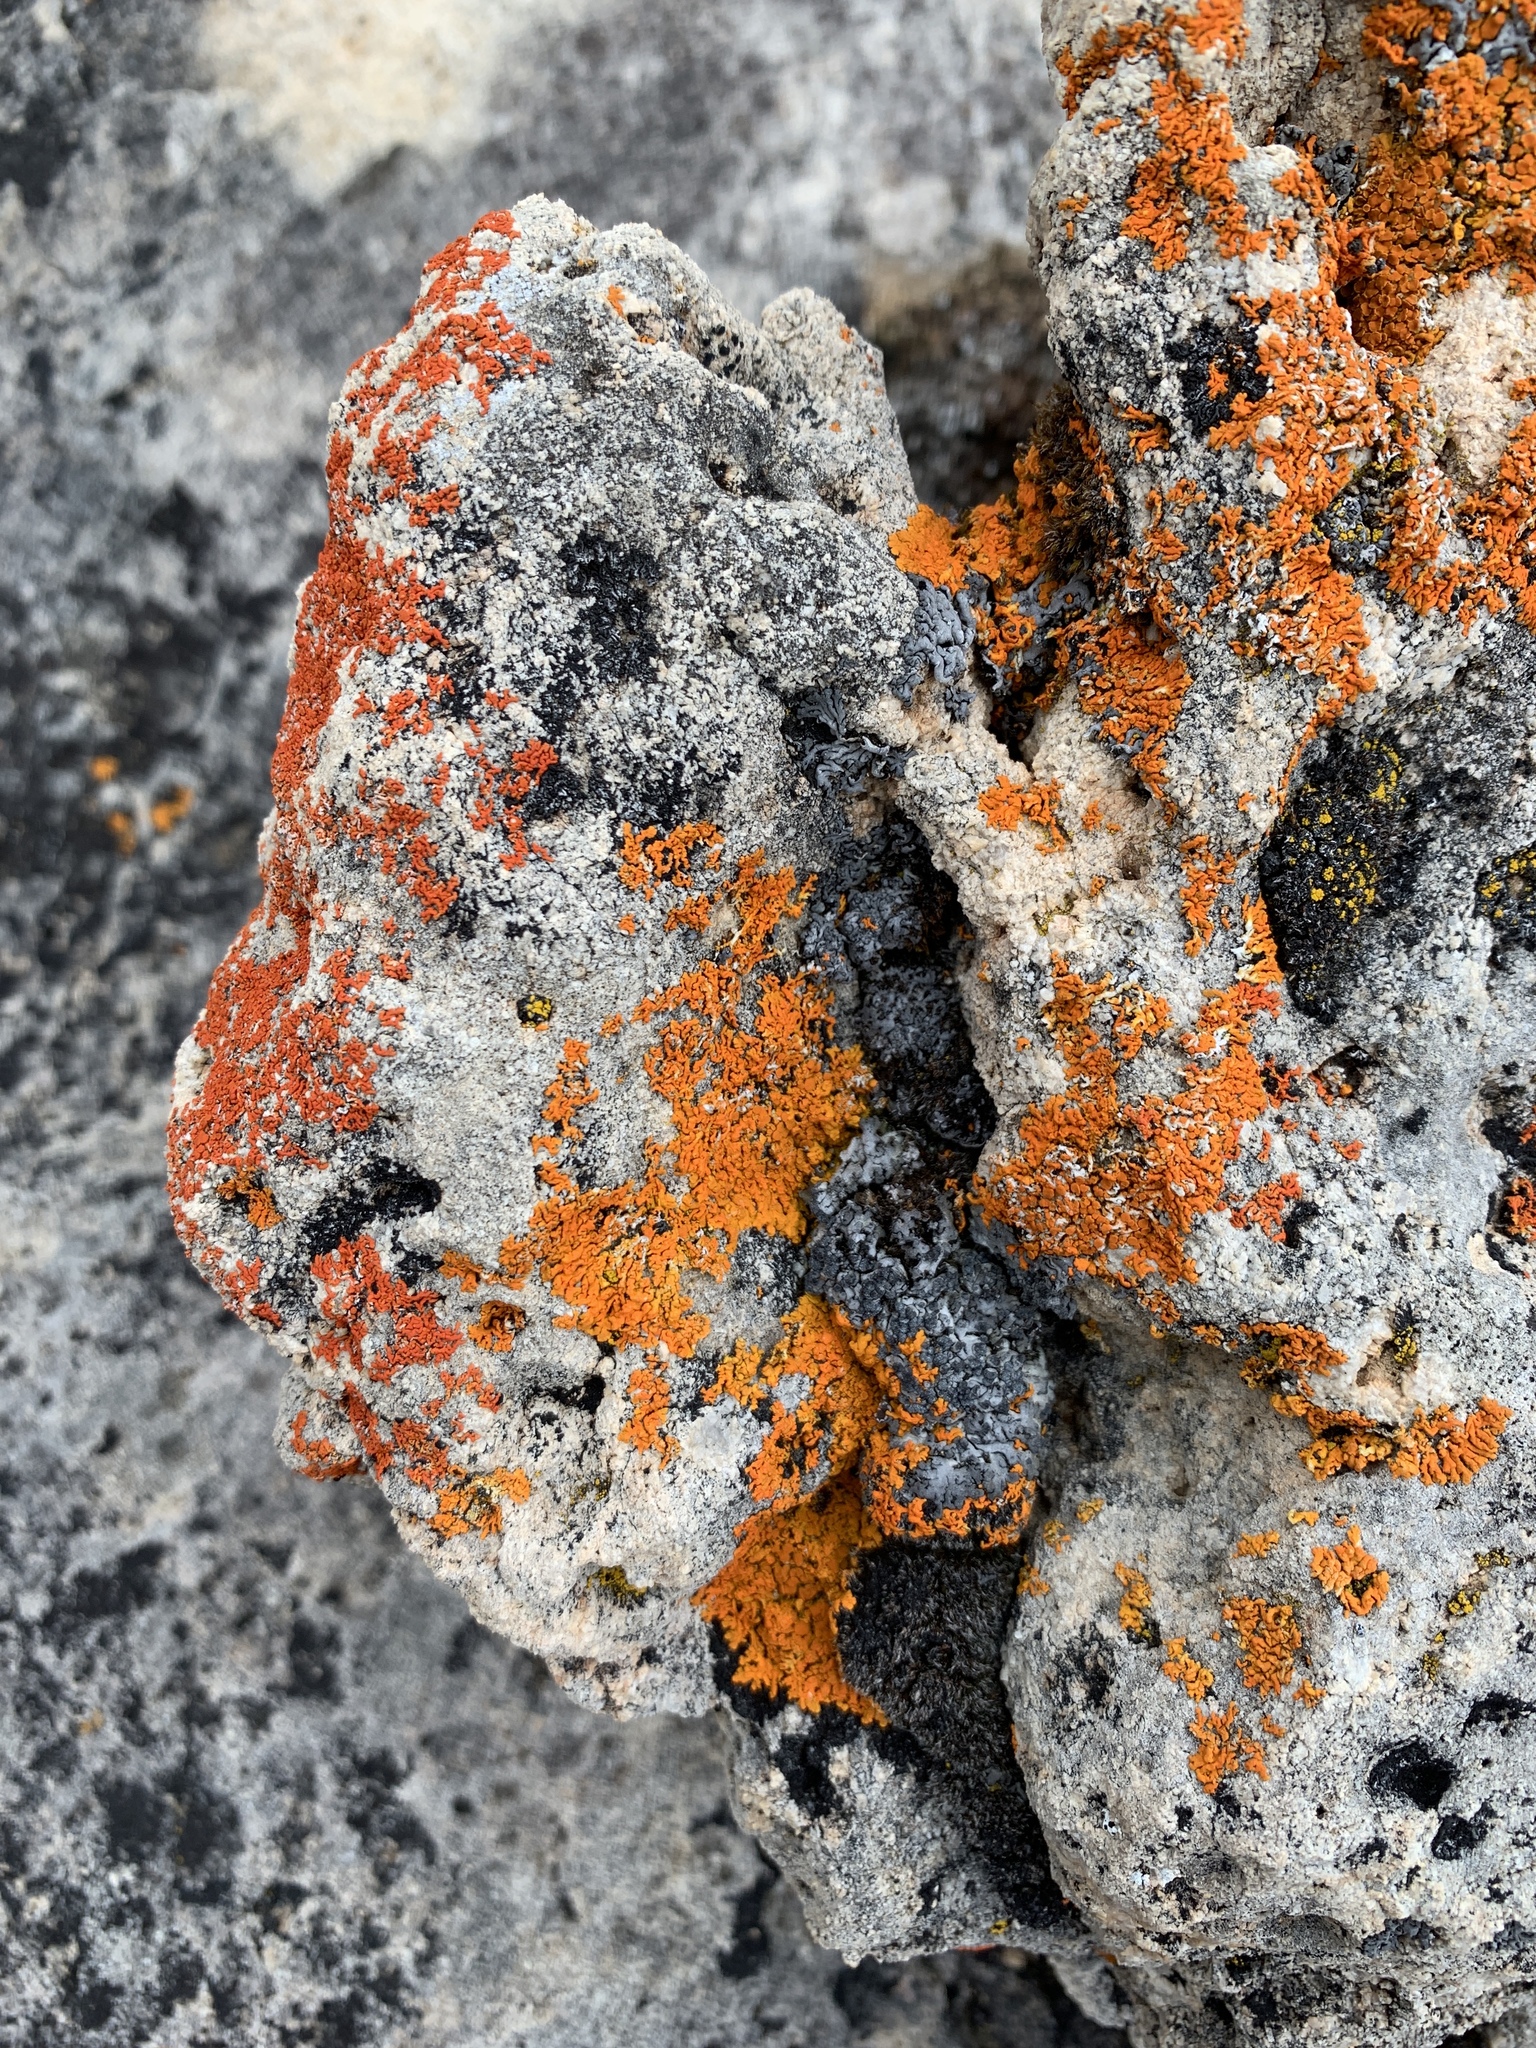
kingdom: Fungi
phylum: Ascomycota
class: Lecanoromycetes
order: Teloschistales
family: Teloschistaceae
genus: Xanthoria
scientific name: Xanthoria elegans
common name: Elegant sunburst lichen
